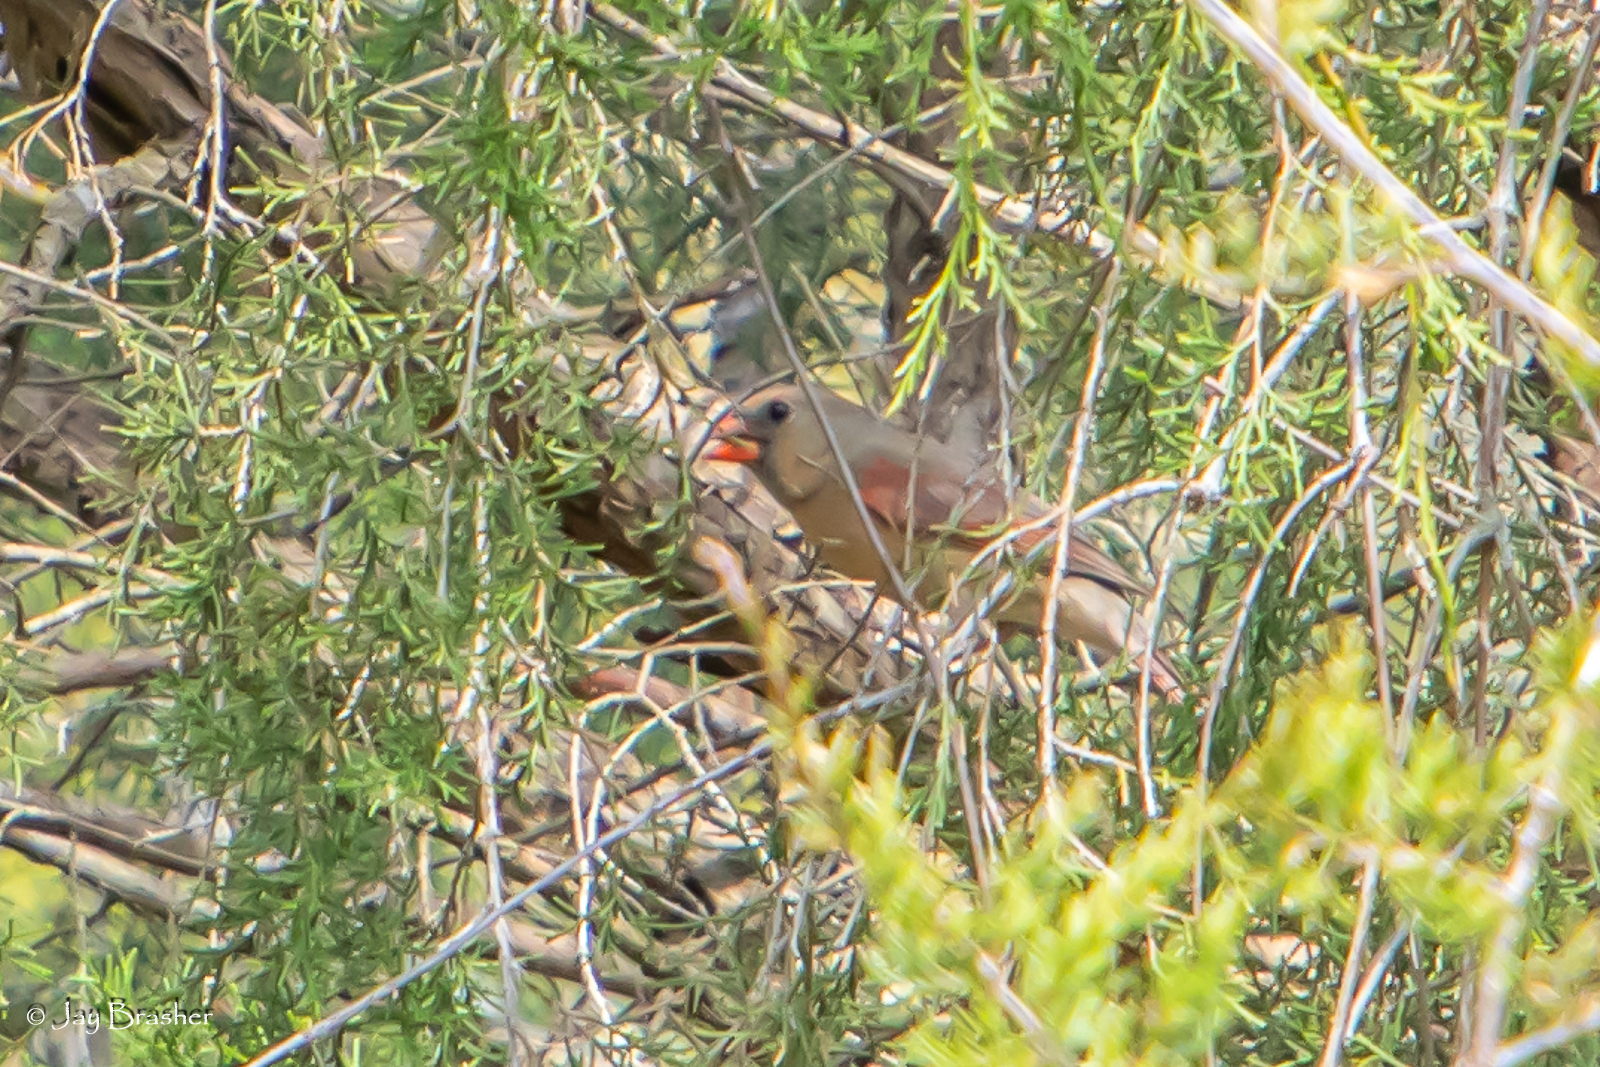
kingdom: Animalia
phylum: Chordata
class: Aves
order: Passeriformes
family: Cardinalidae
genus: Cardinalis
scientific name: Cardinalis cardinalis
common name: Northern cardinal
